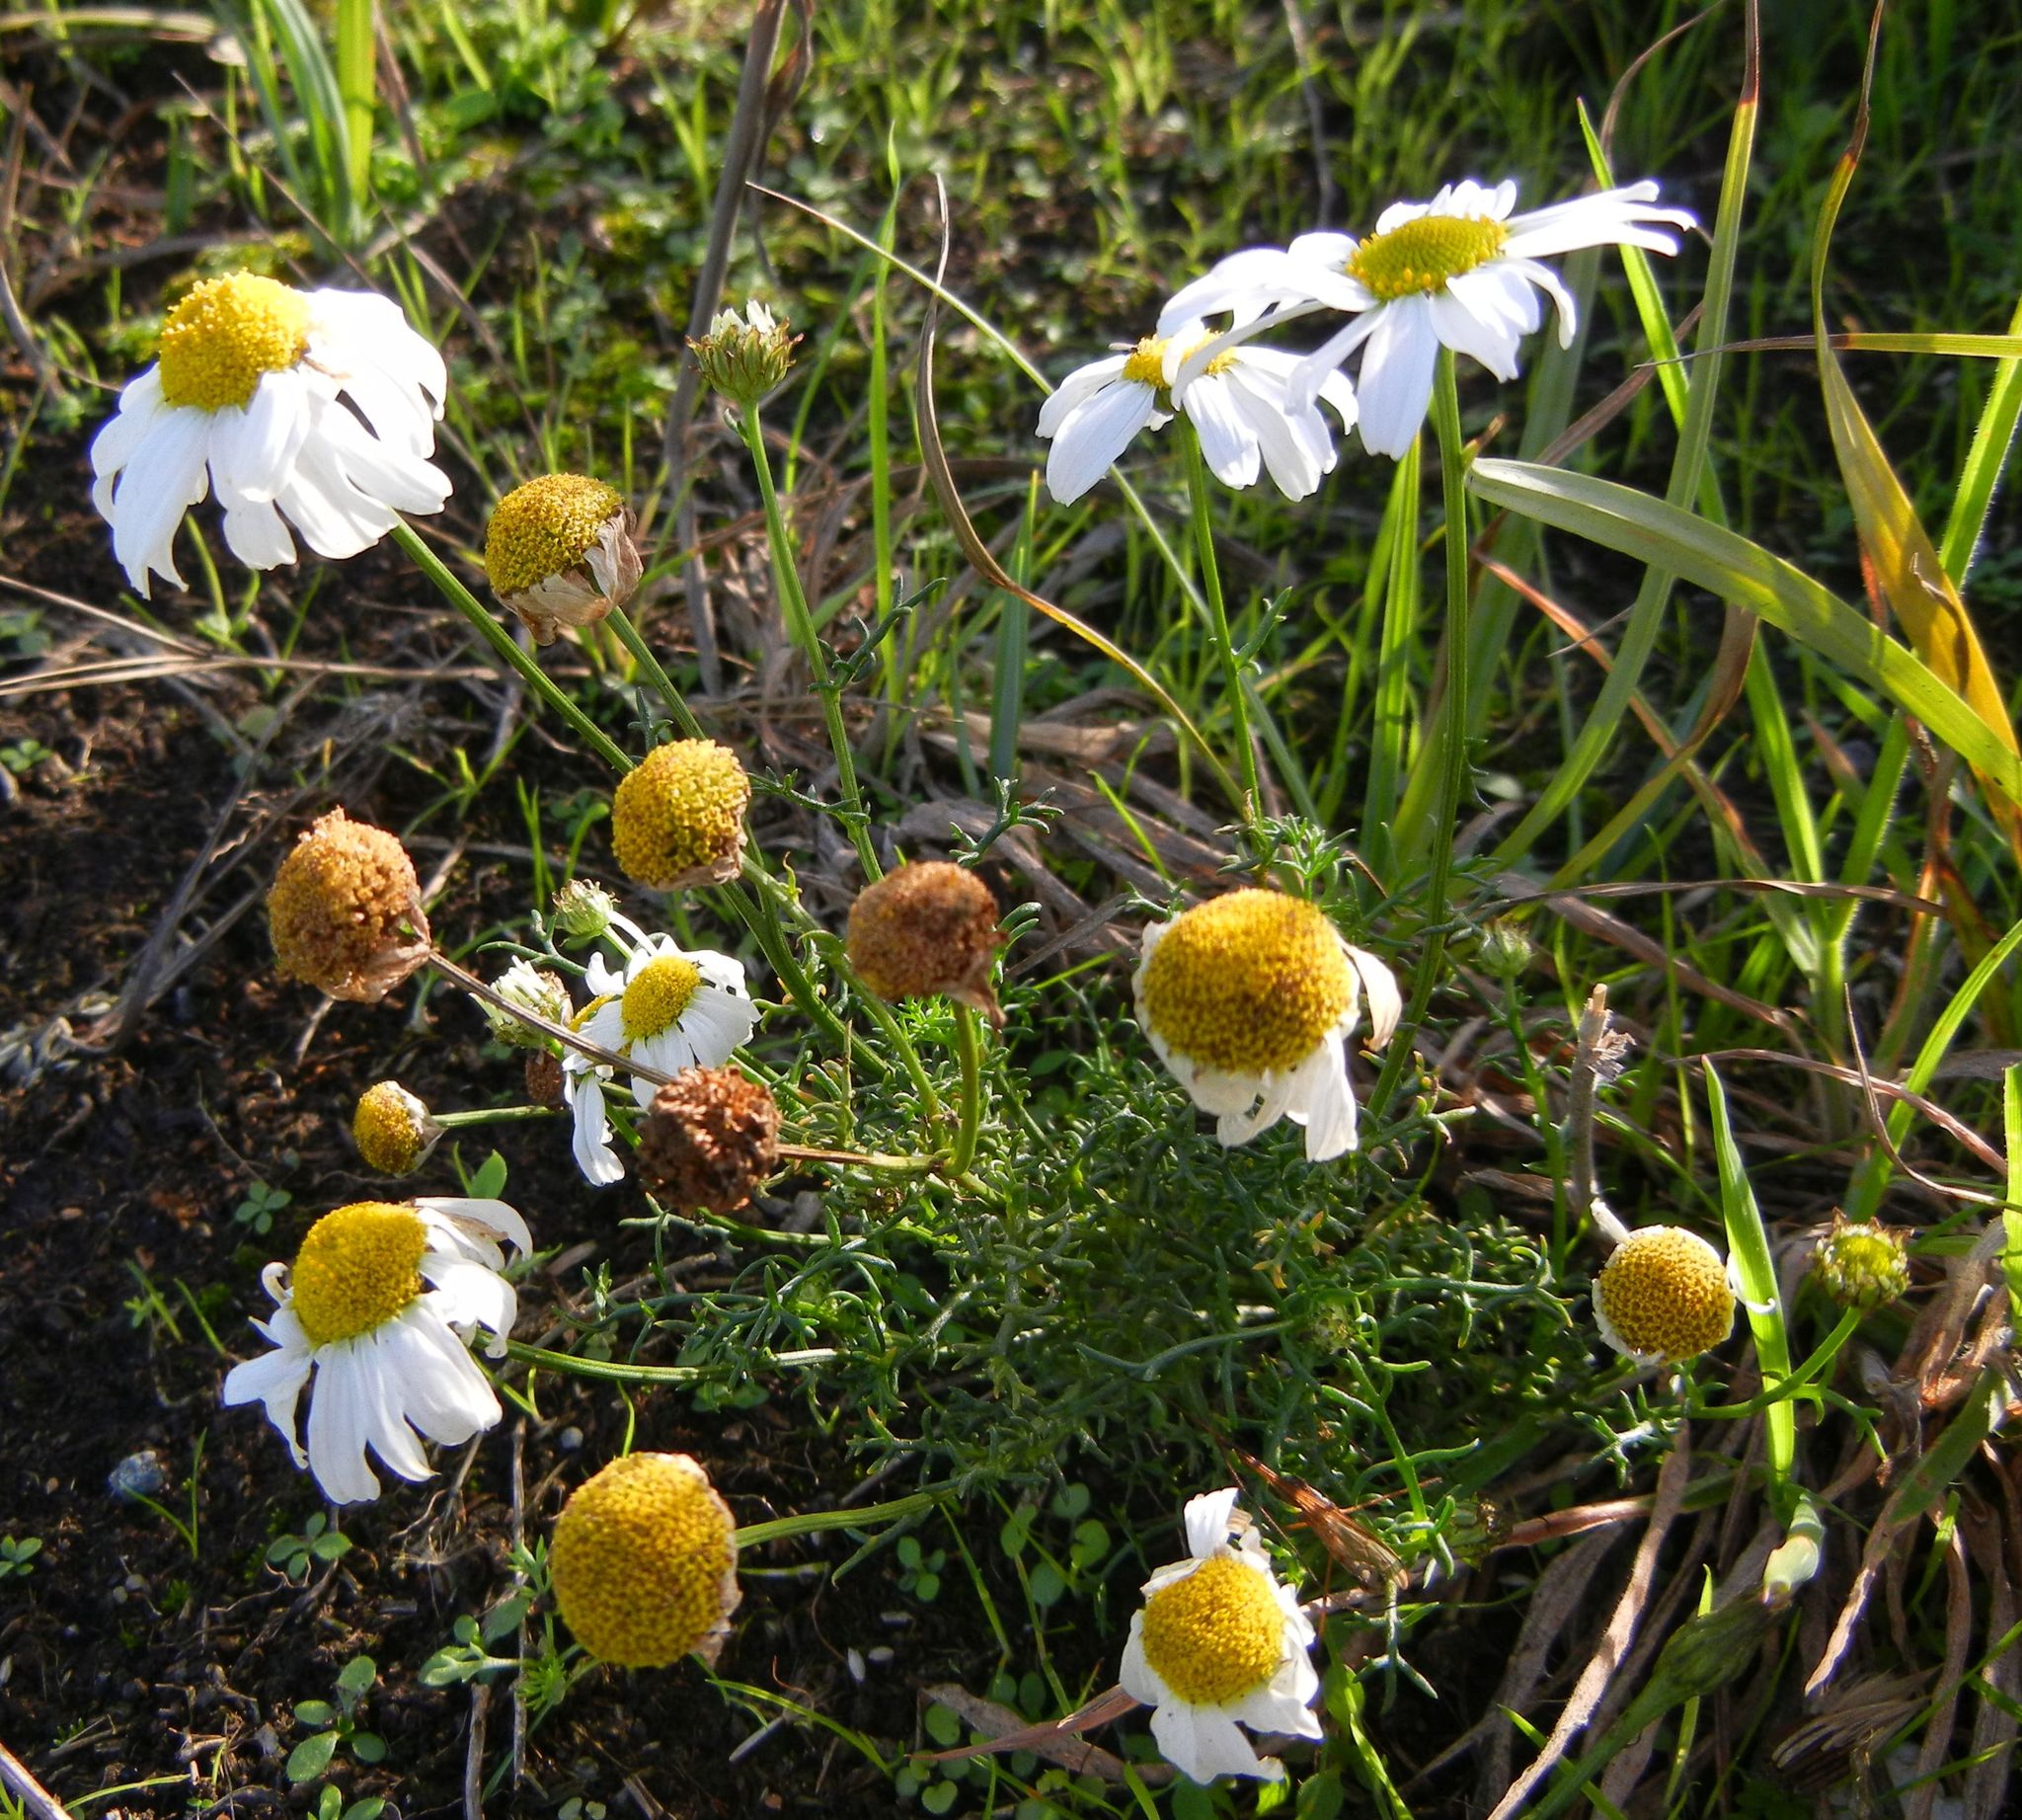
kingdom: Plantae
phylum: Tracheophyta
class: Magnoliopsida
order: Asterales
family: Asteraceae
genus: Tripleurospermum
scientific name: Tripleurospermum inodorum
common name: Scentless mayweed
